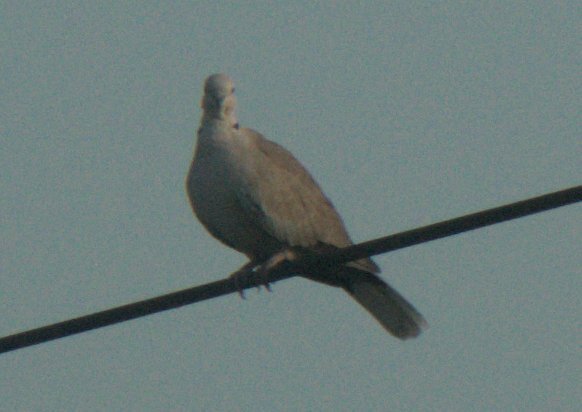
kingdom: Animalia
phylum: Chordata
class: Aves
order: Columbiformes
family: Columbidae
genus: Streptopelia
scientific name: Streptopelia decaocto
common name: Eurasian collared dove
